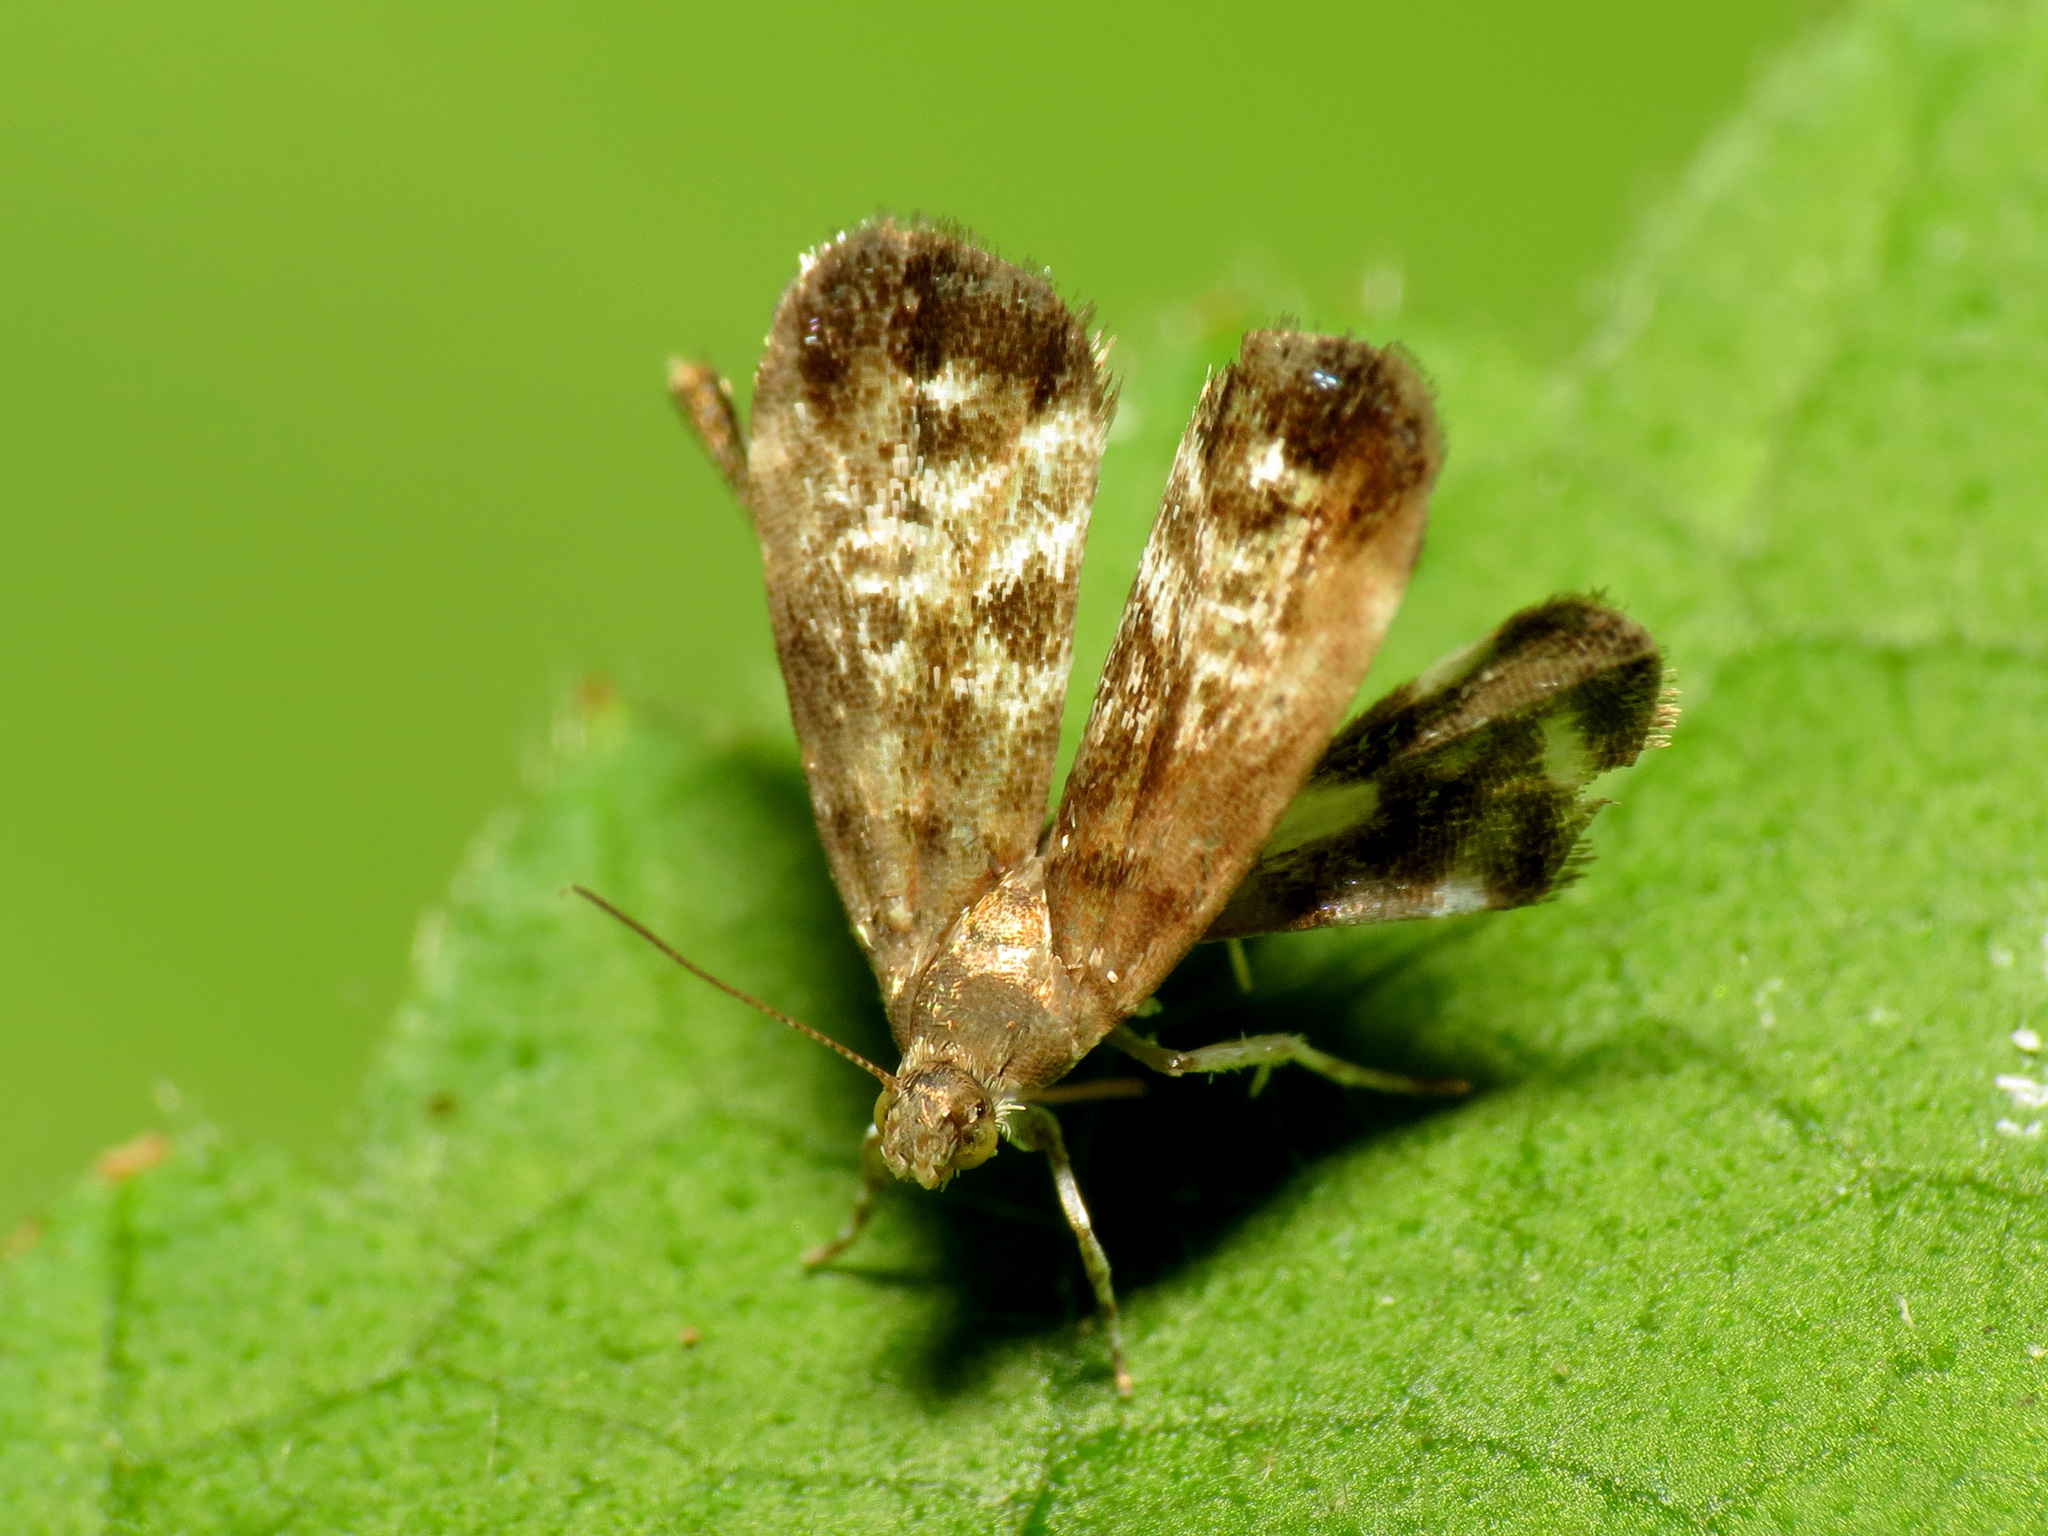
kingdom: Animalia
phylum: Arthropoda
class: Insecta
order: Lepidoptera
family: Choreutidae
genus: Brenthia
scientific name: Brenthia pavonacella
